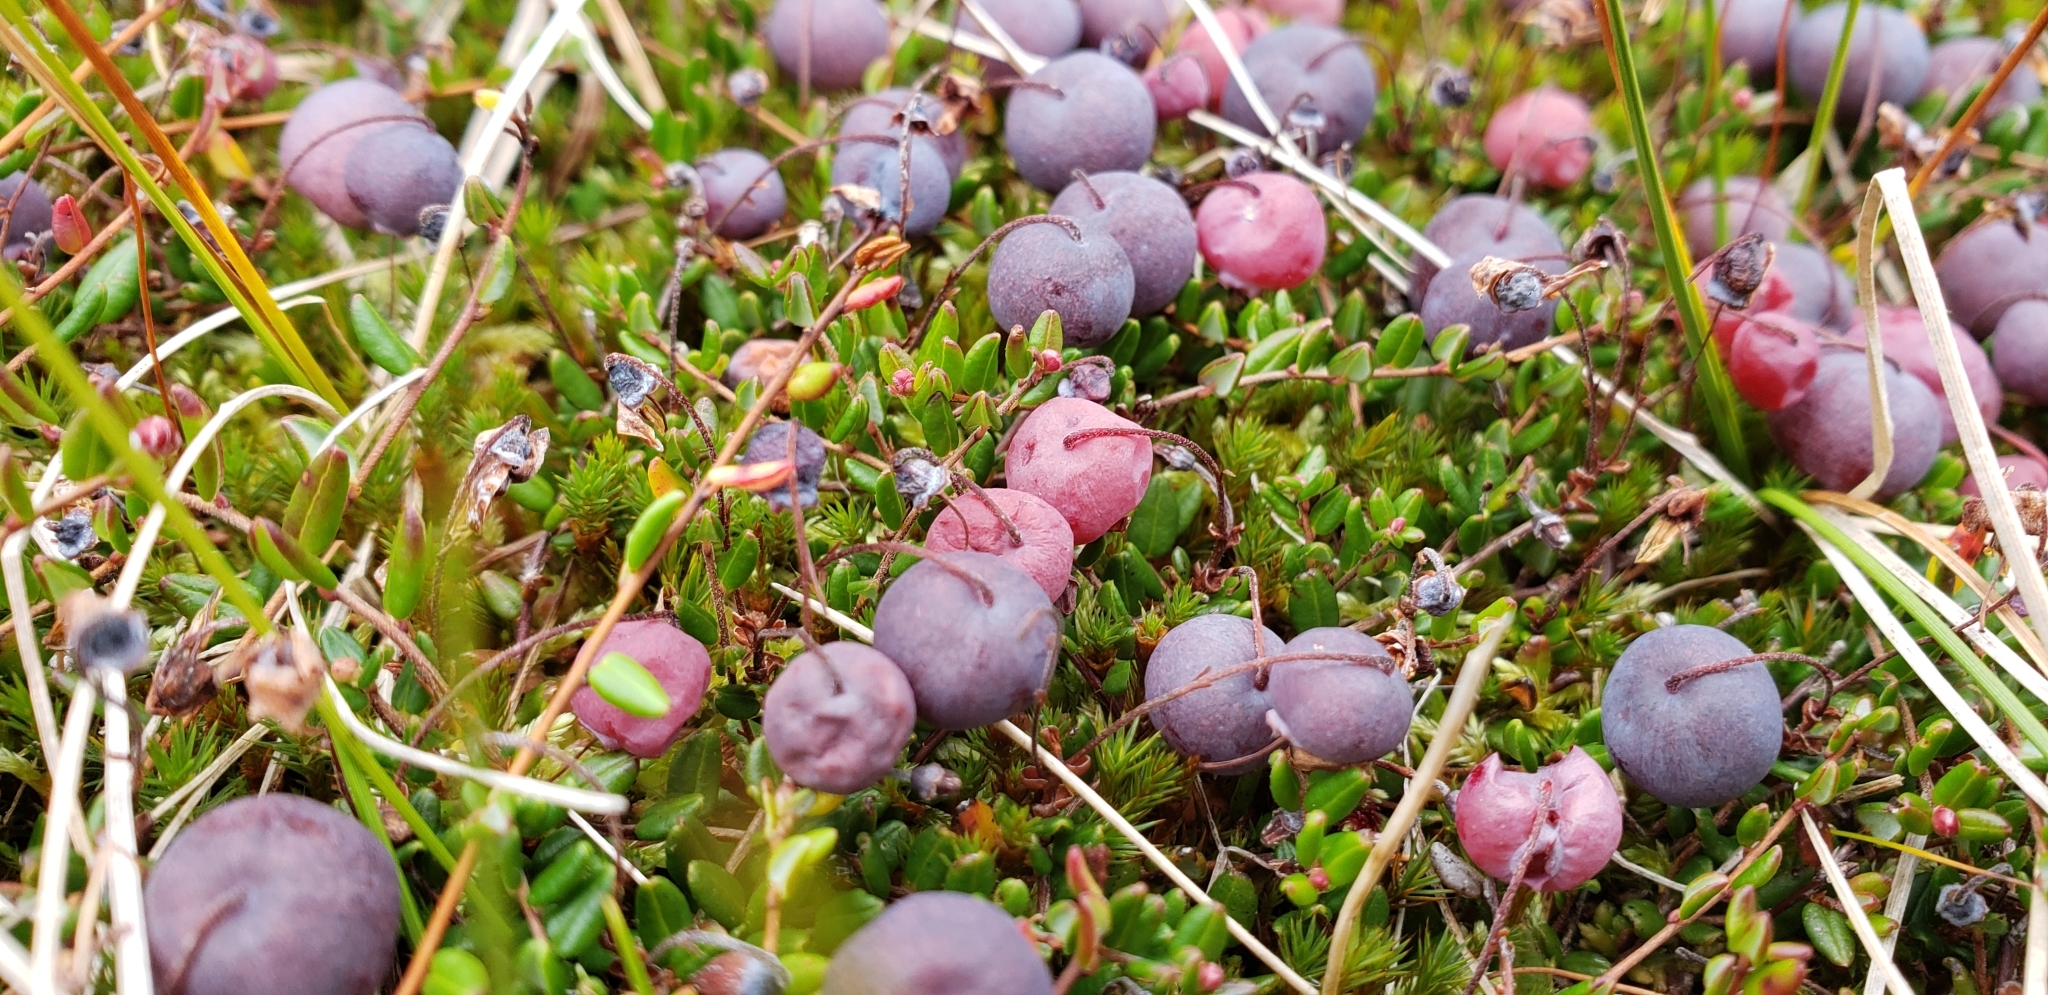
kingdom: Plantae
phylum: Tracheophyta
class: Magnoliopsida
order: Ericales
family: Ericaceae
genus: Vaccinium
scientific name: Vaccinium oxycoccos
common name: Cranberry
